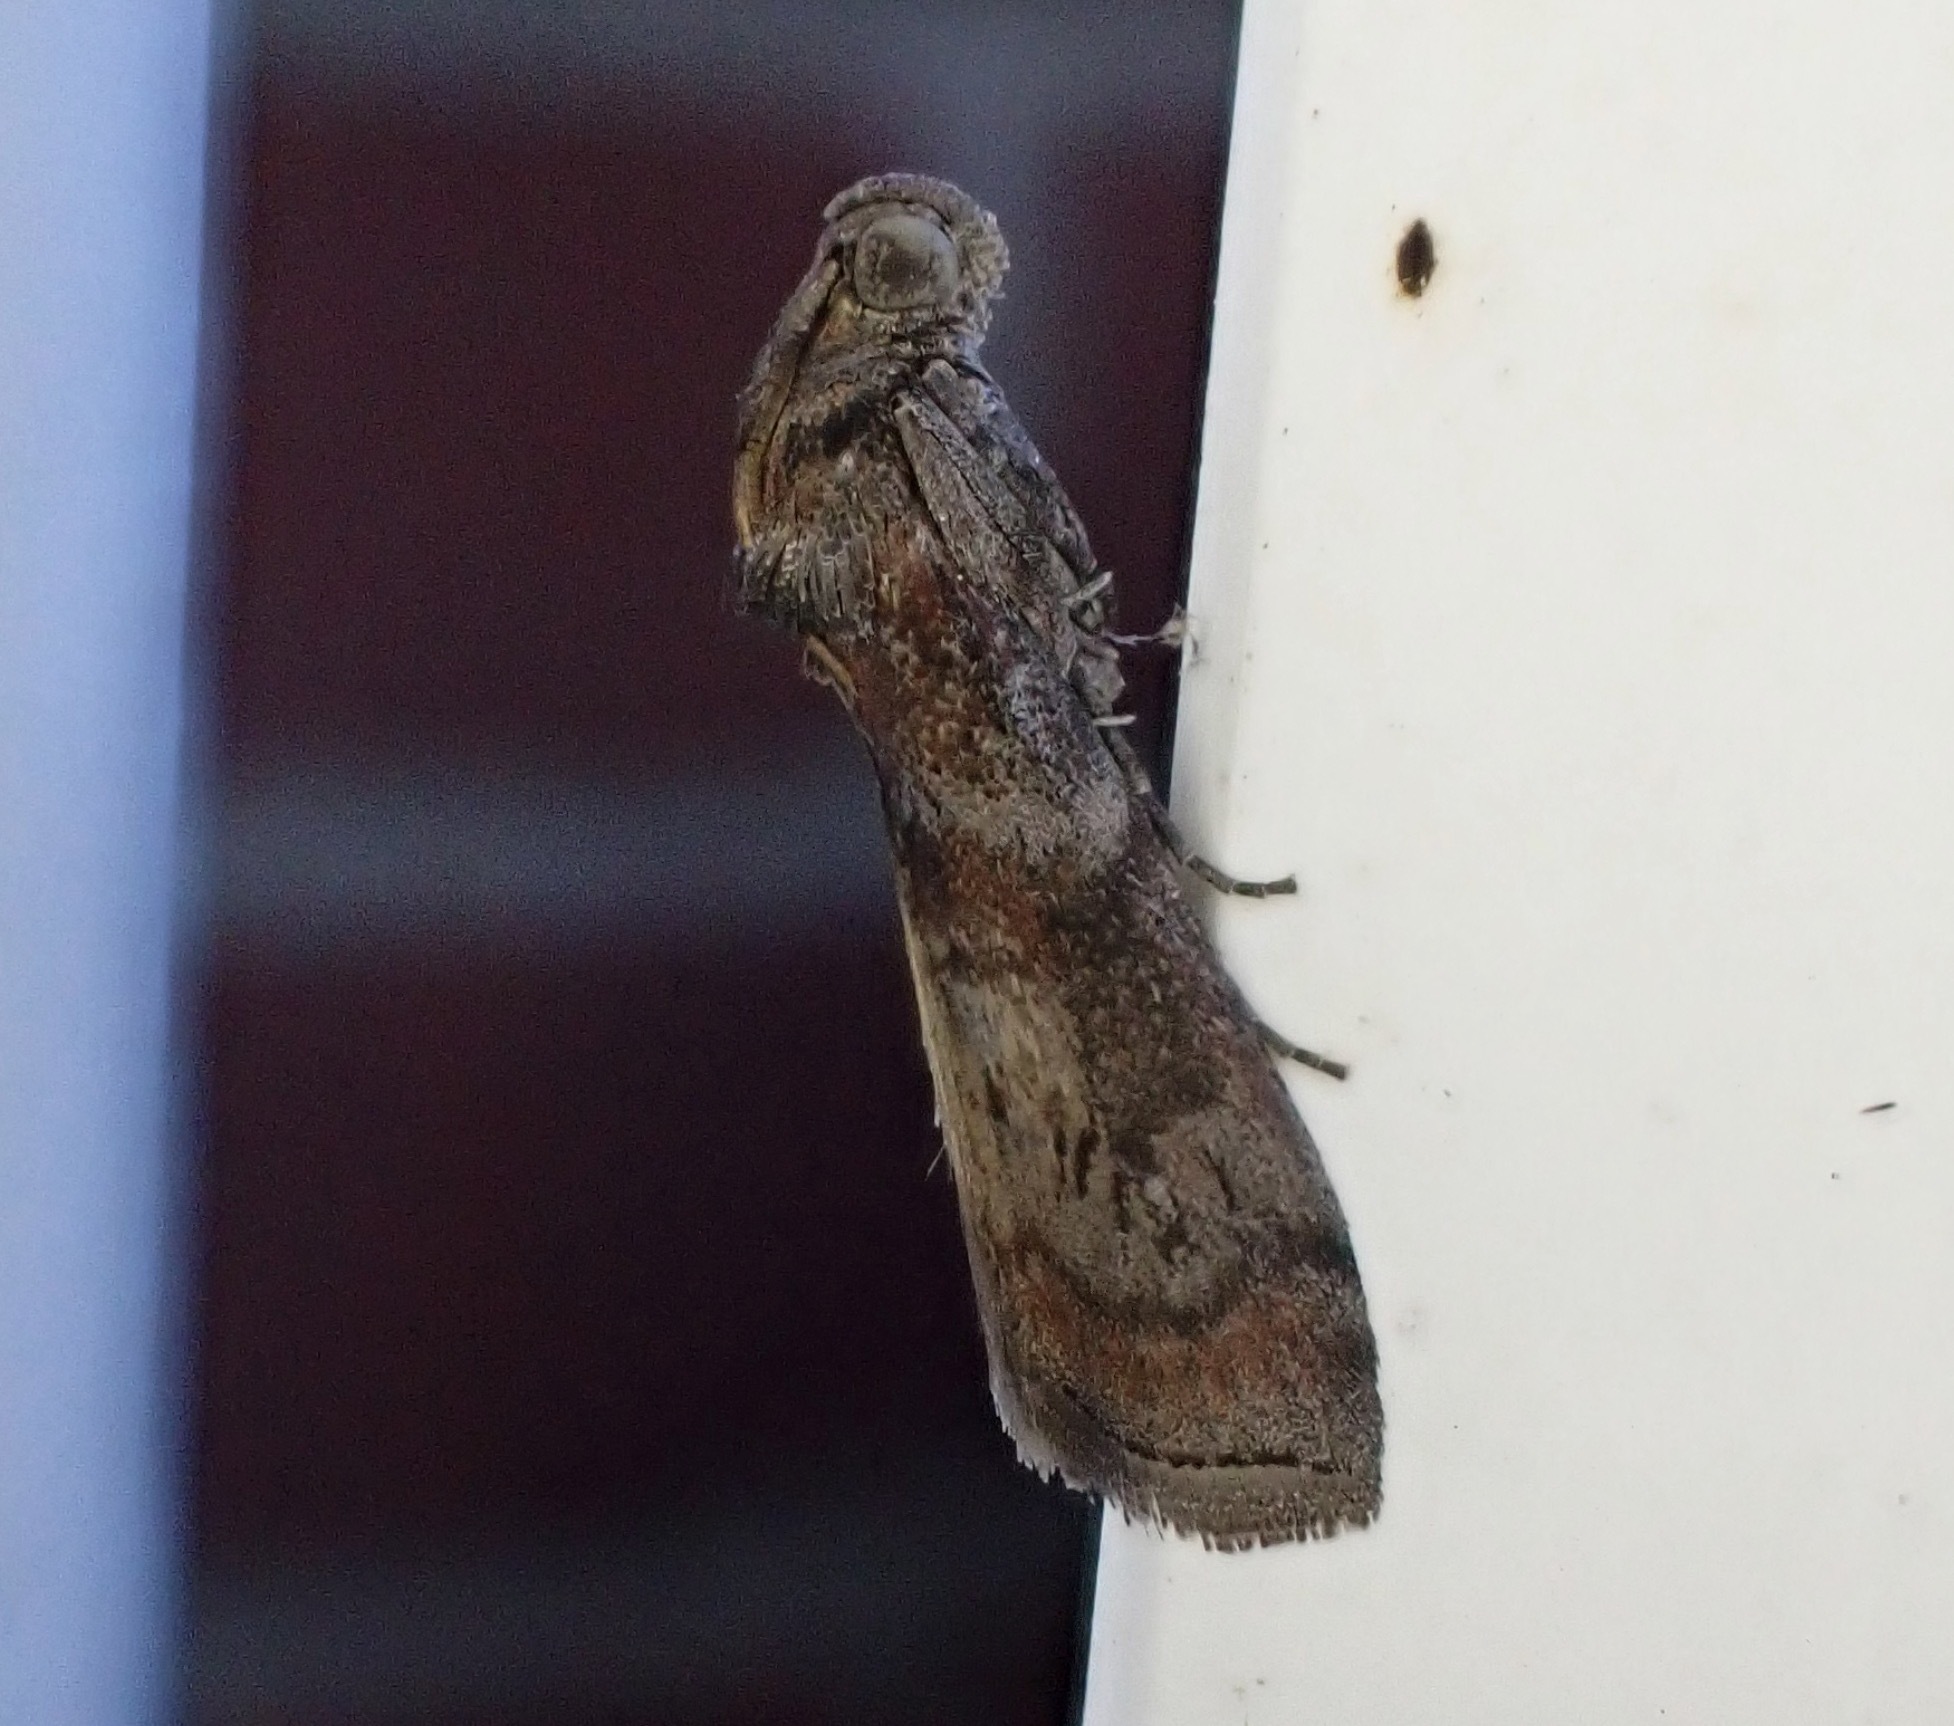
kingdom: Animalia
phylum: Arthropoda
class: Insecta
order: Lepidoptera
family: Pyralidae
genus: Phycita
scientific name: Phycita roborella
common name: Dotted oak knot-horn
